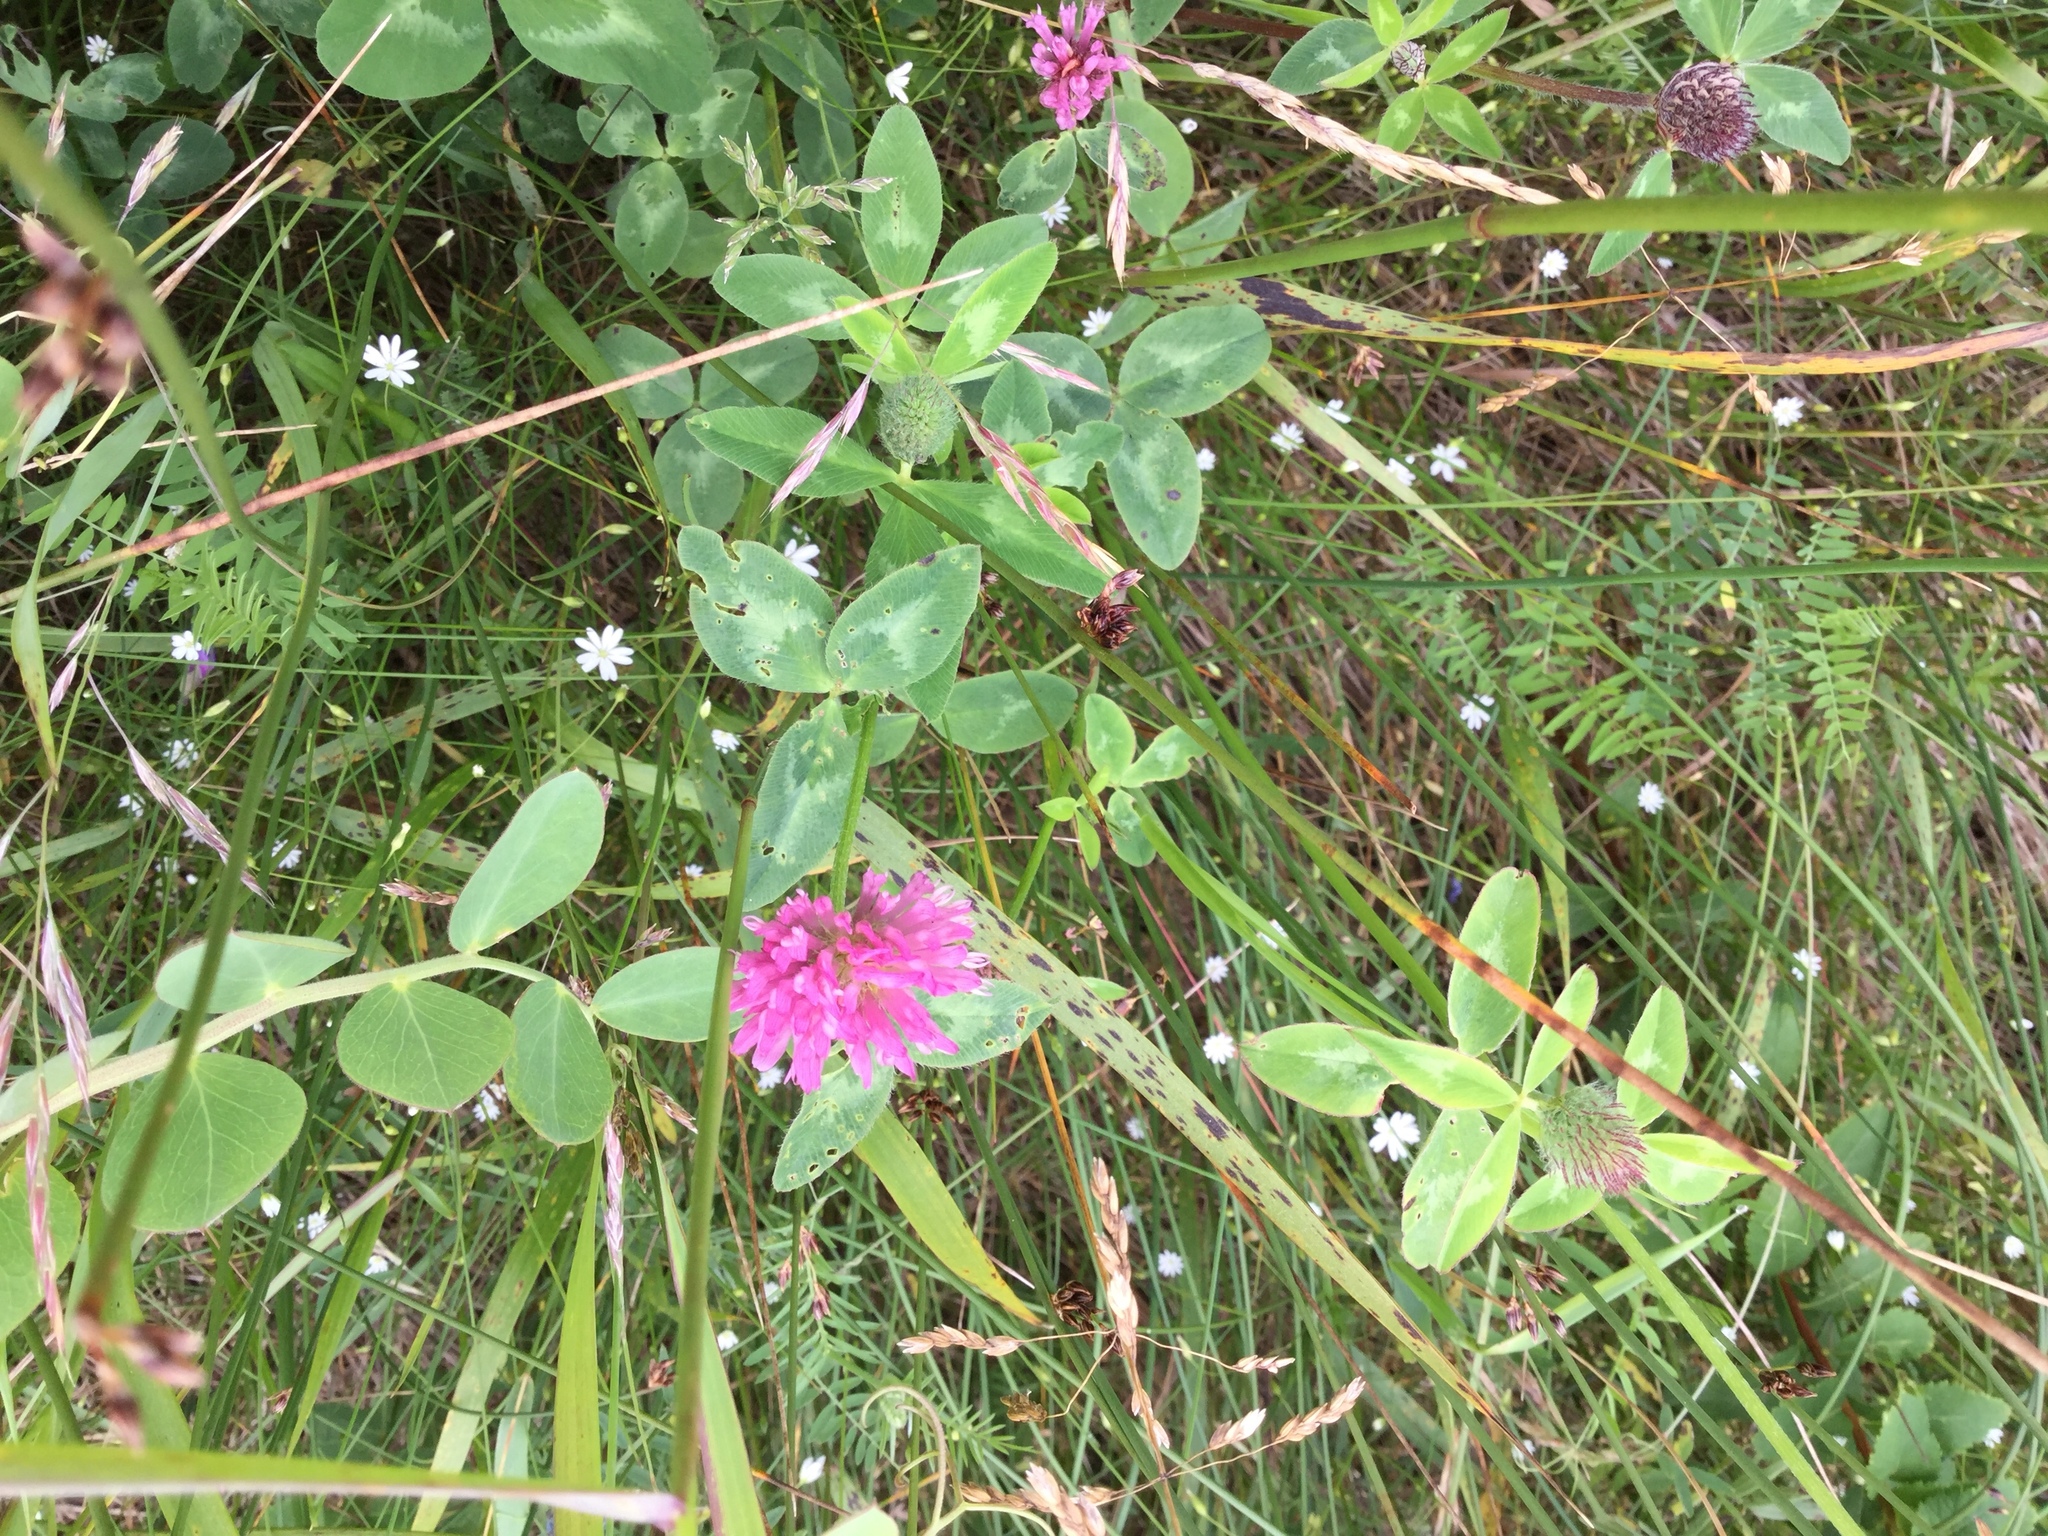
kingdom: Plantae
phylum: Tracheophyta
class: Magnoliopsida
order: Fabales
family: Fabaceae
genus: Trifolium
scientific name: Trifolium pratense
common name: Red clover
